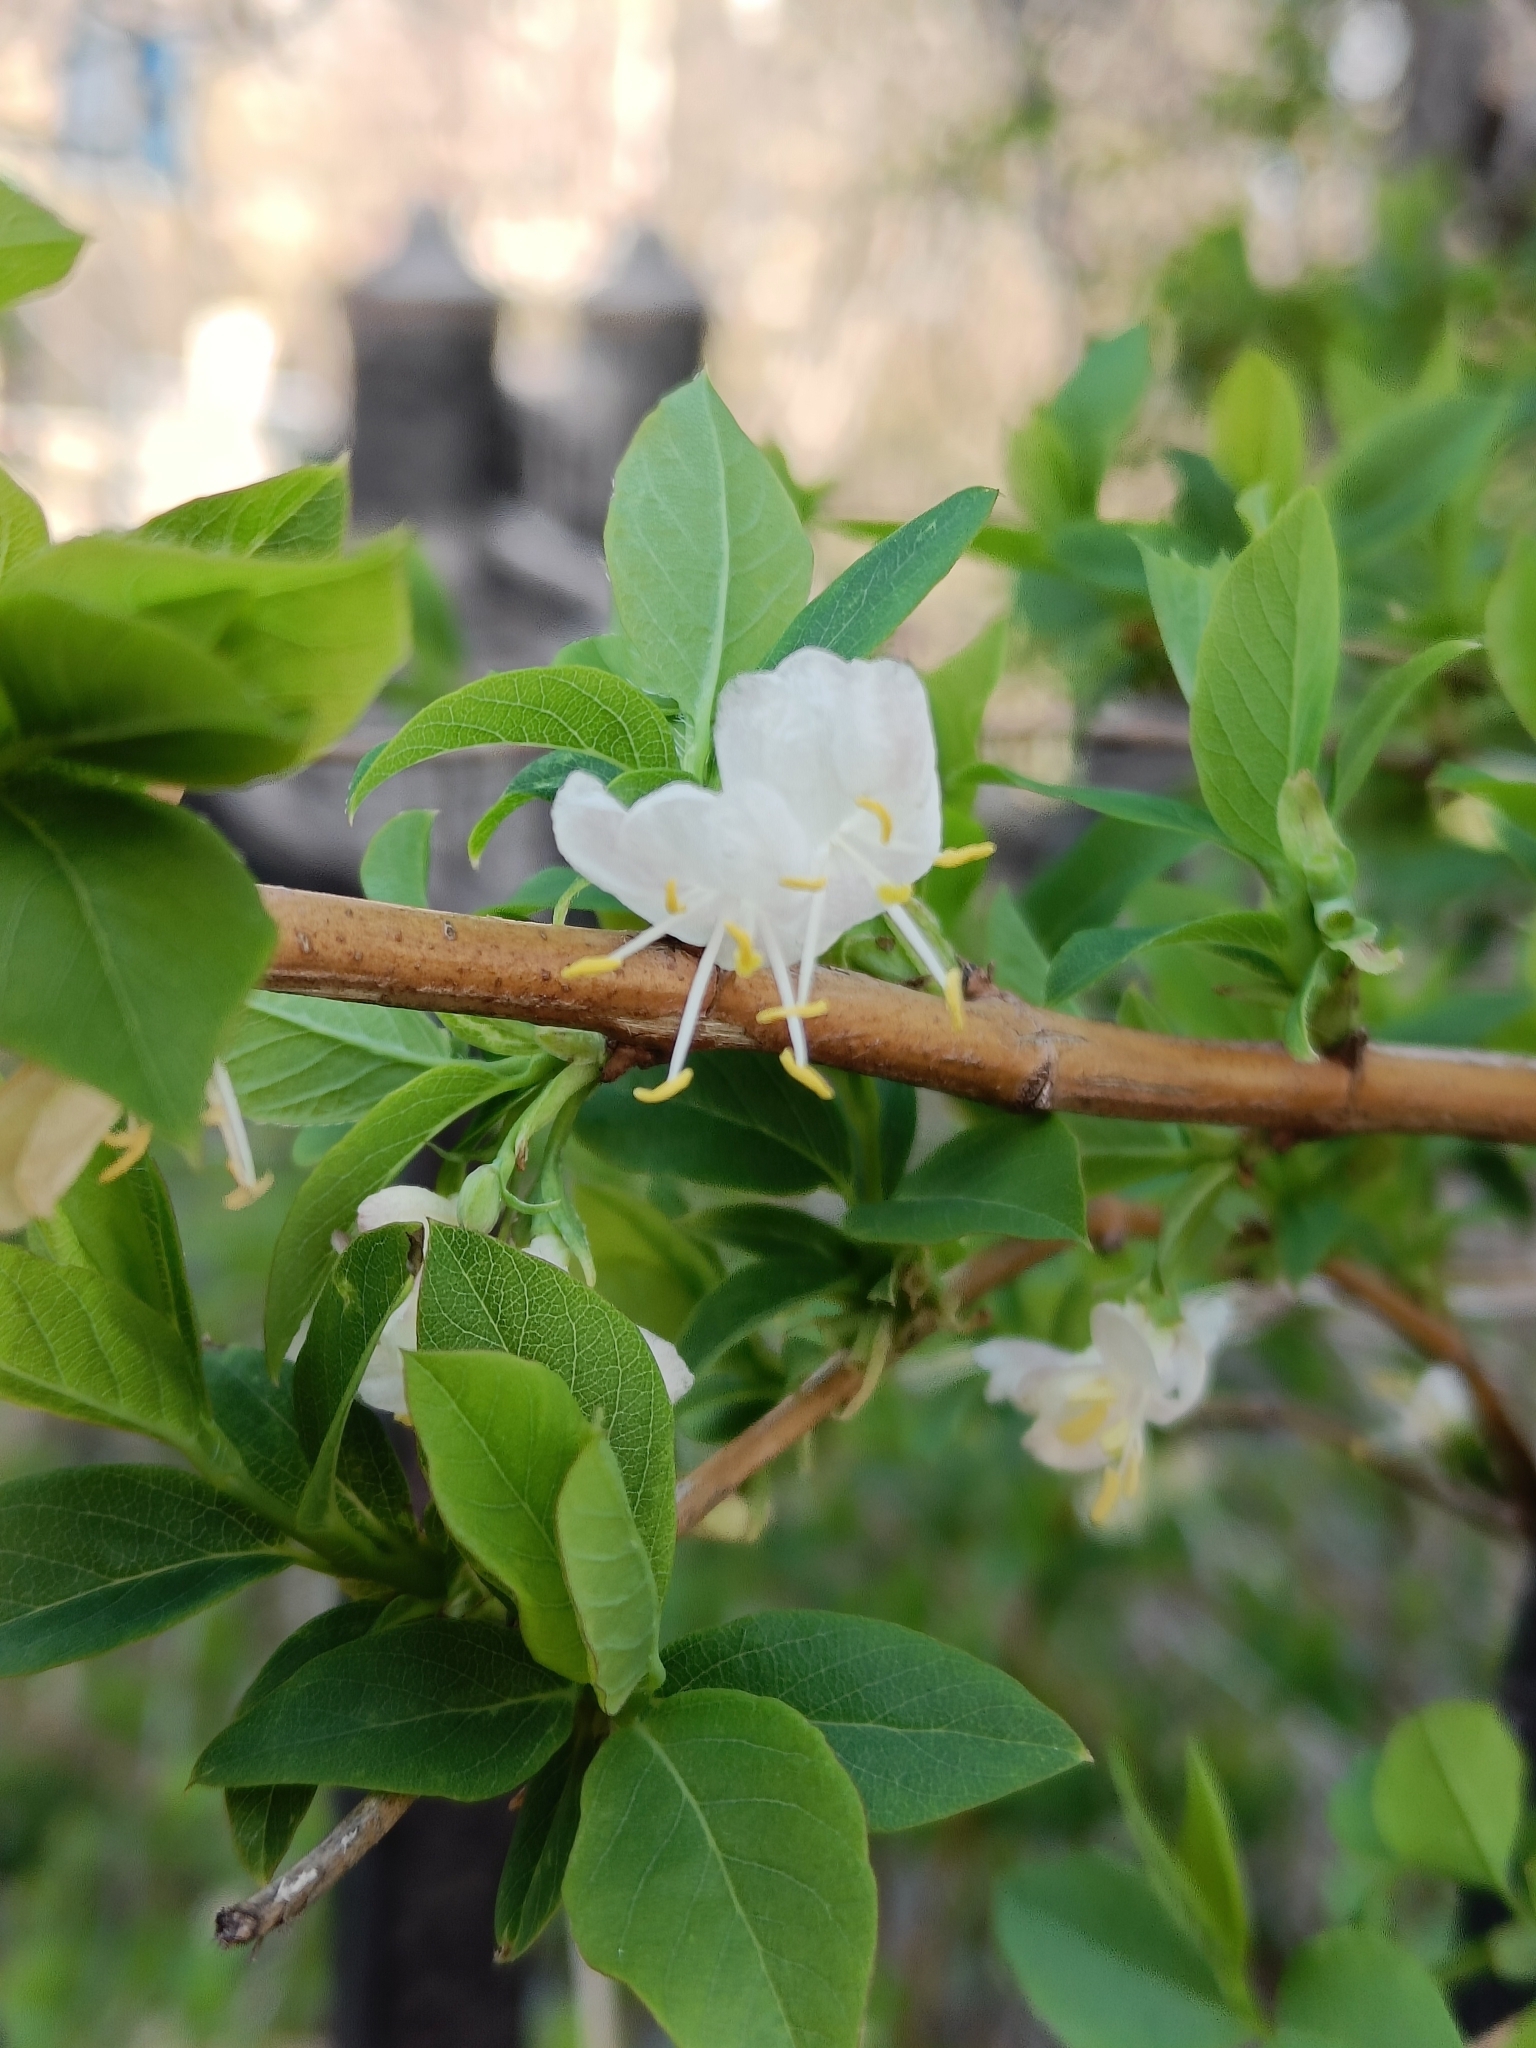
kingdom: Plantae
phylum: Tracheophyta
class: Magnoliopsida
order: Dipsacales
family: Caprifoliaceae
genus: Lonicera
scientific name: Lonicera fragrantissima
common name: Fragrant honeysuckle
